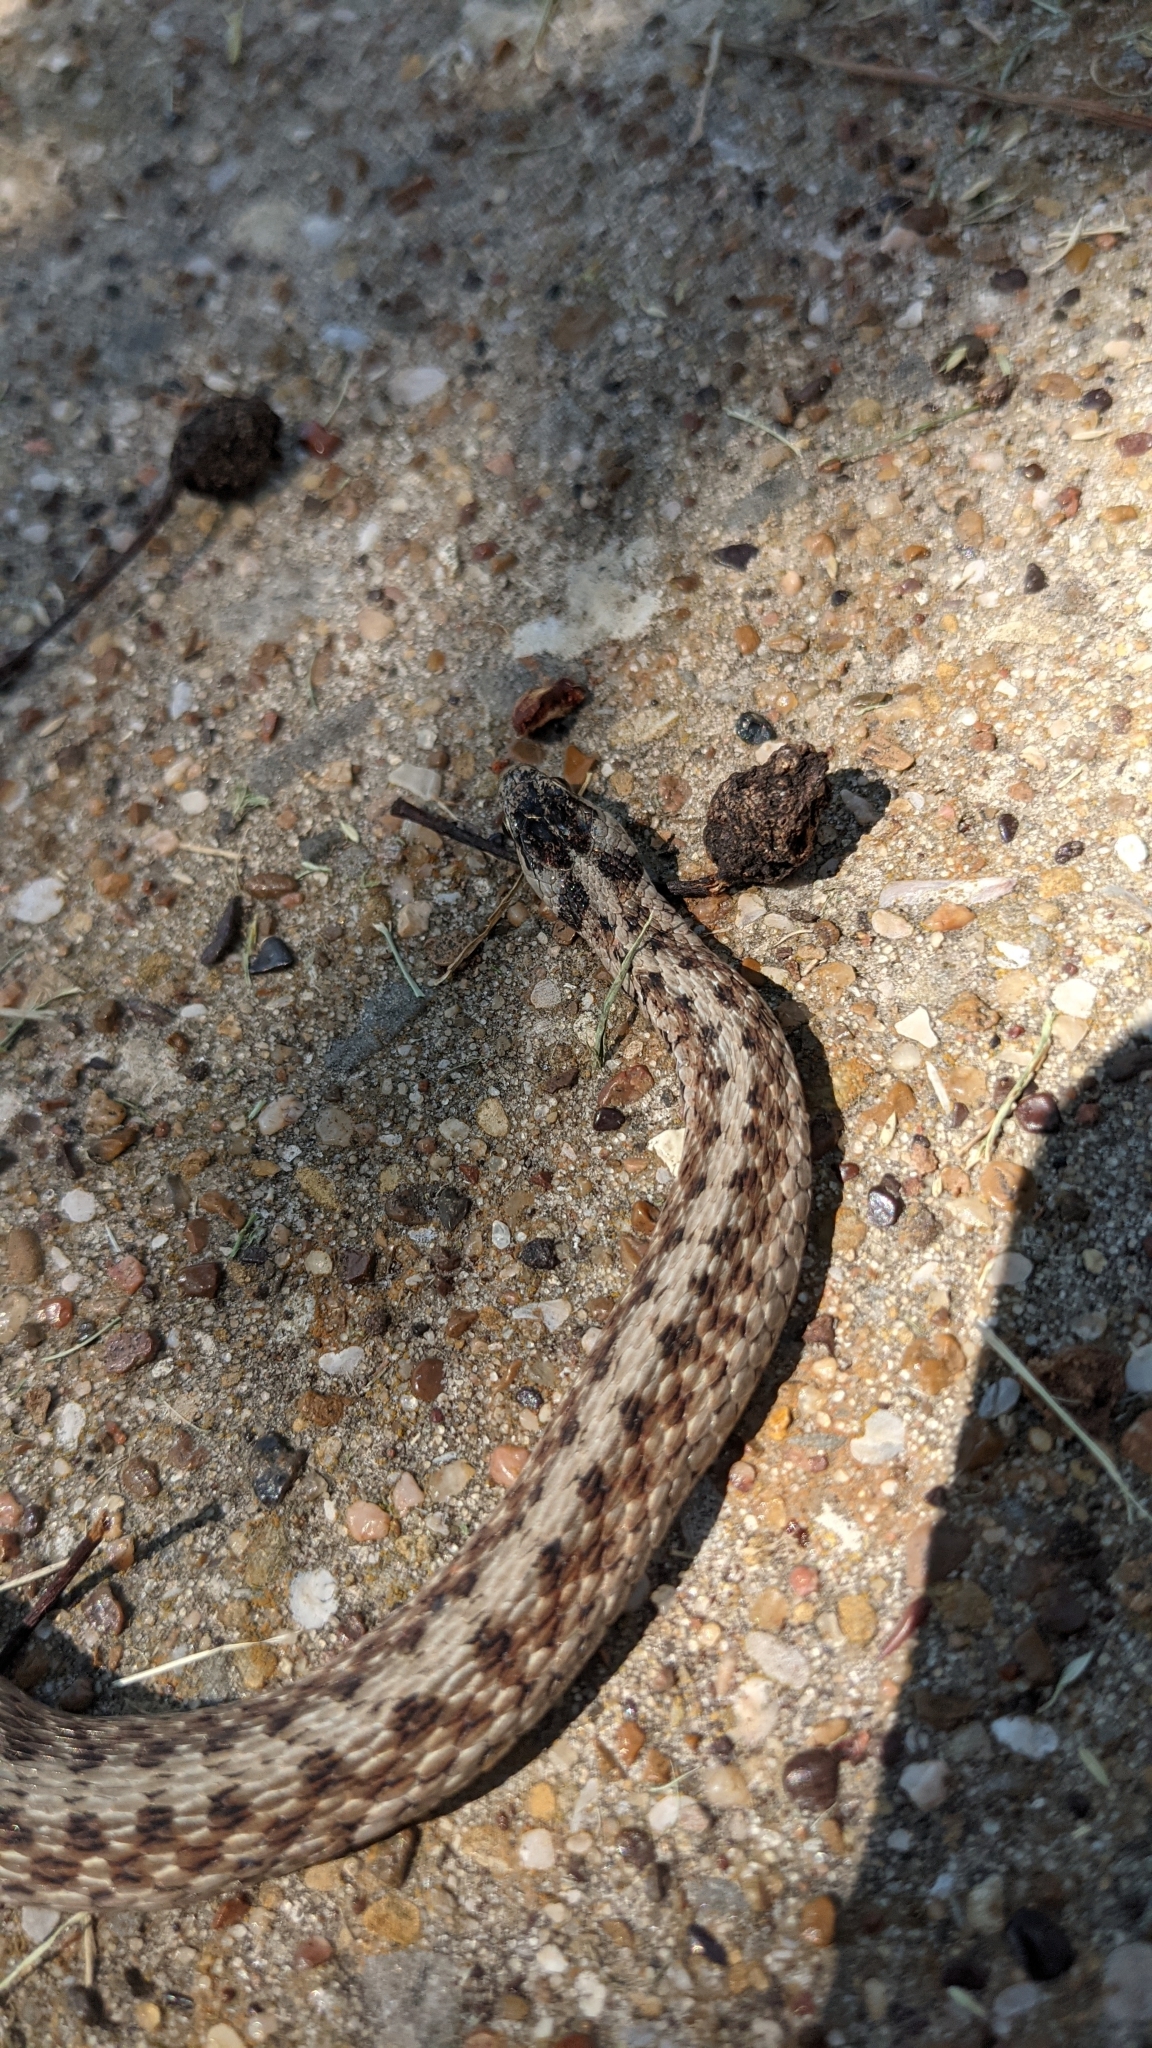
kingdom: Animalia
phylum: Chordata
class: Squamata
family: Colubridae
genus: Storeria
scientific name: Storeria dekayi
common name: (dekay’s) brown snake
